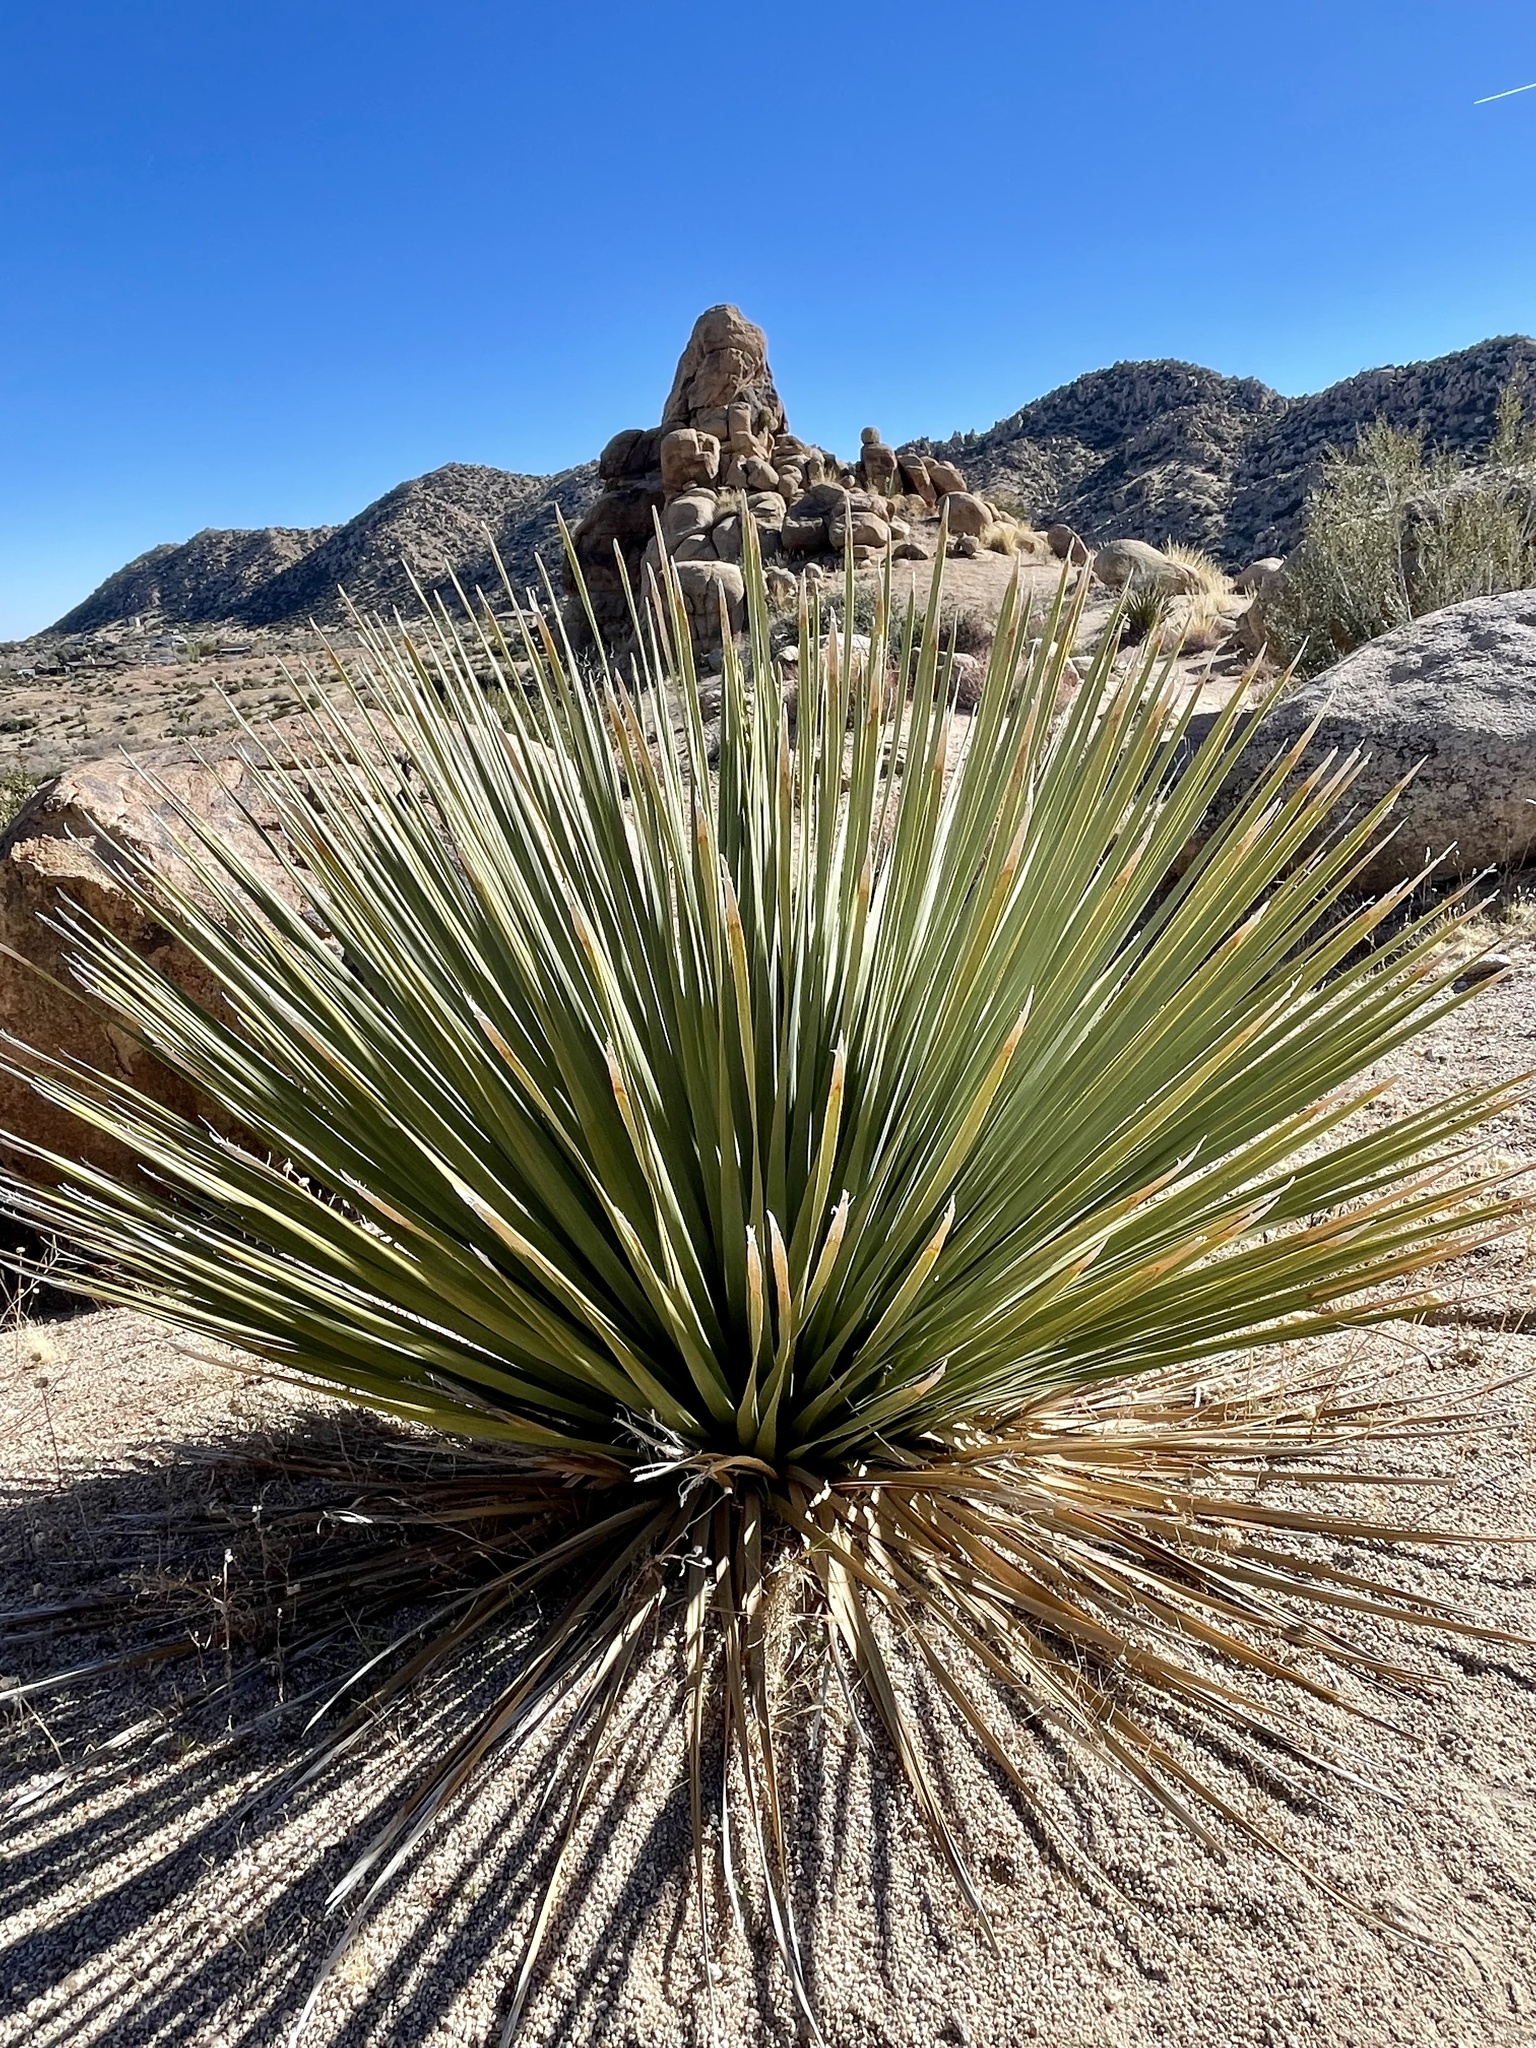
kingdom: Plantae
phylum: Tracheophyta
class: Liliopsida
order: Asparagales
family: Asparagaceae
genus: Hesperoyucca
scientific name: Hesperoyucca whipplei
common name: Our lord's-candle
